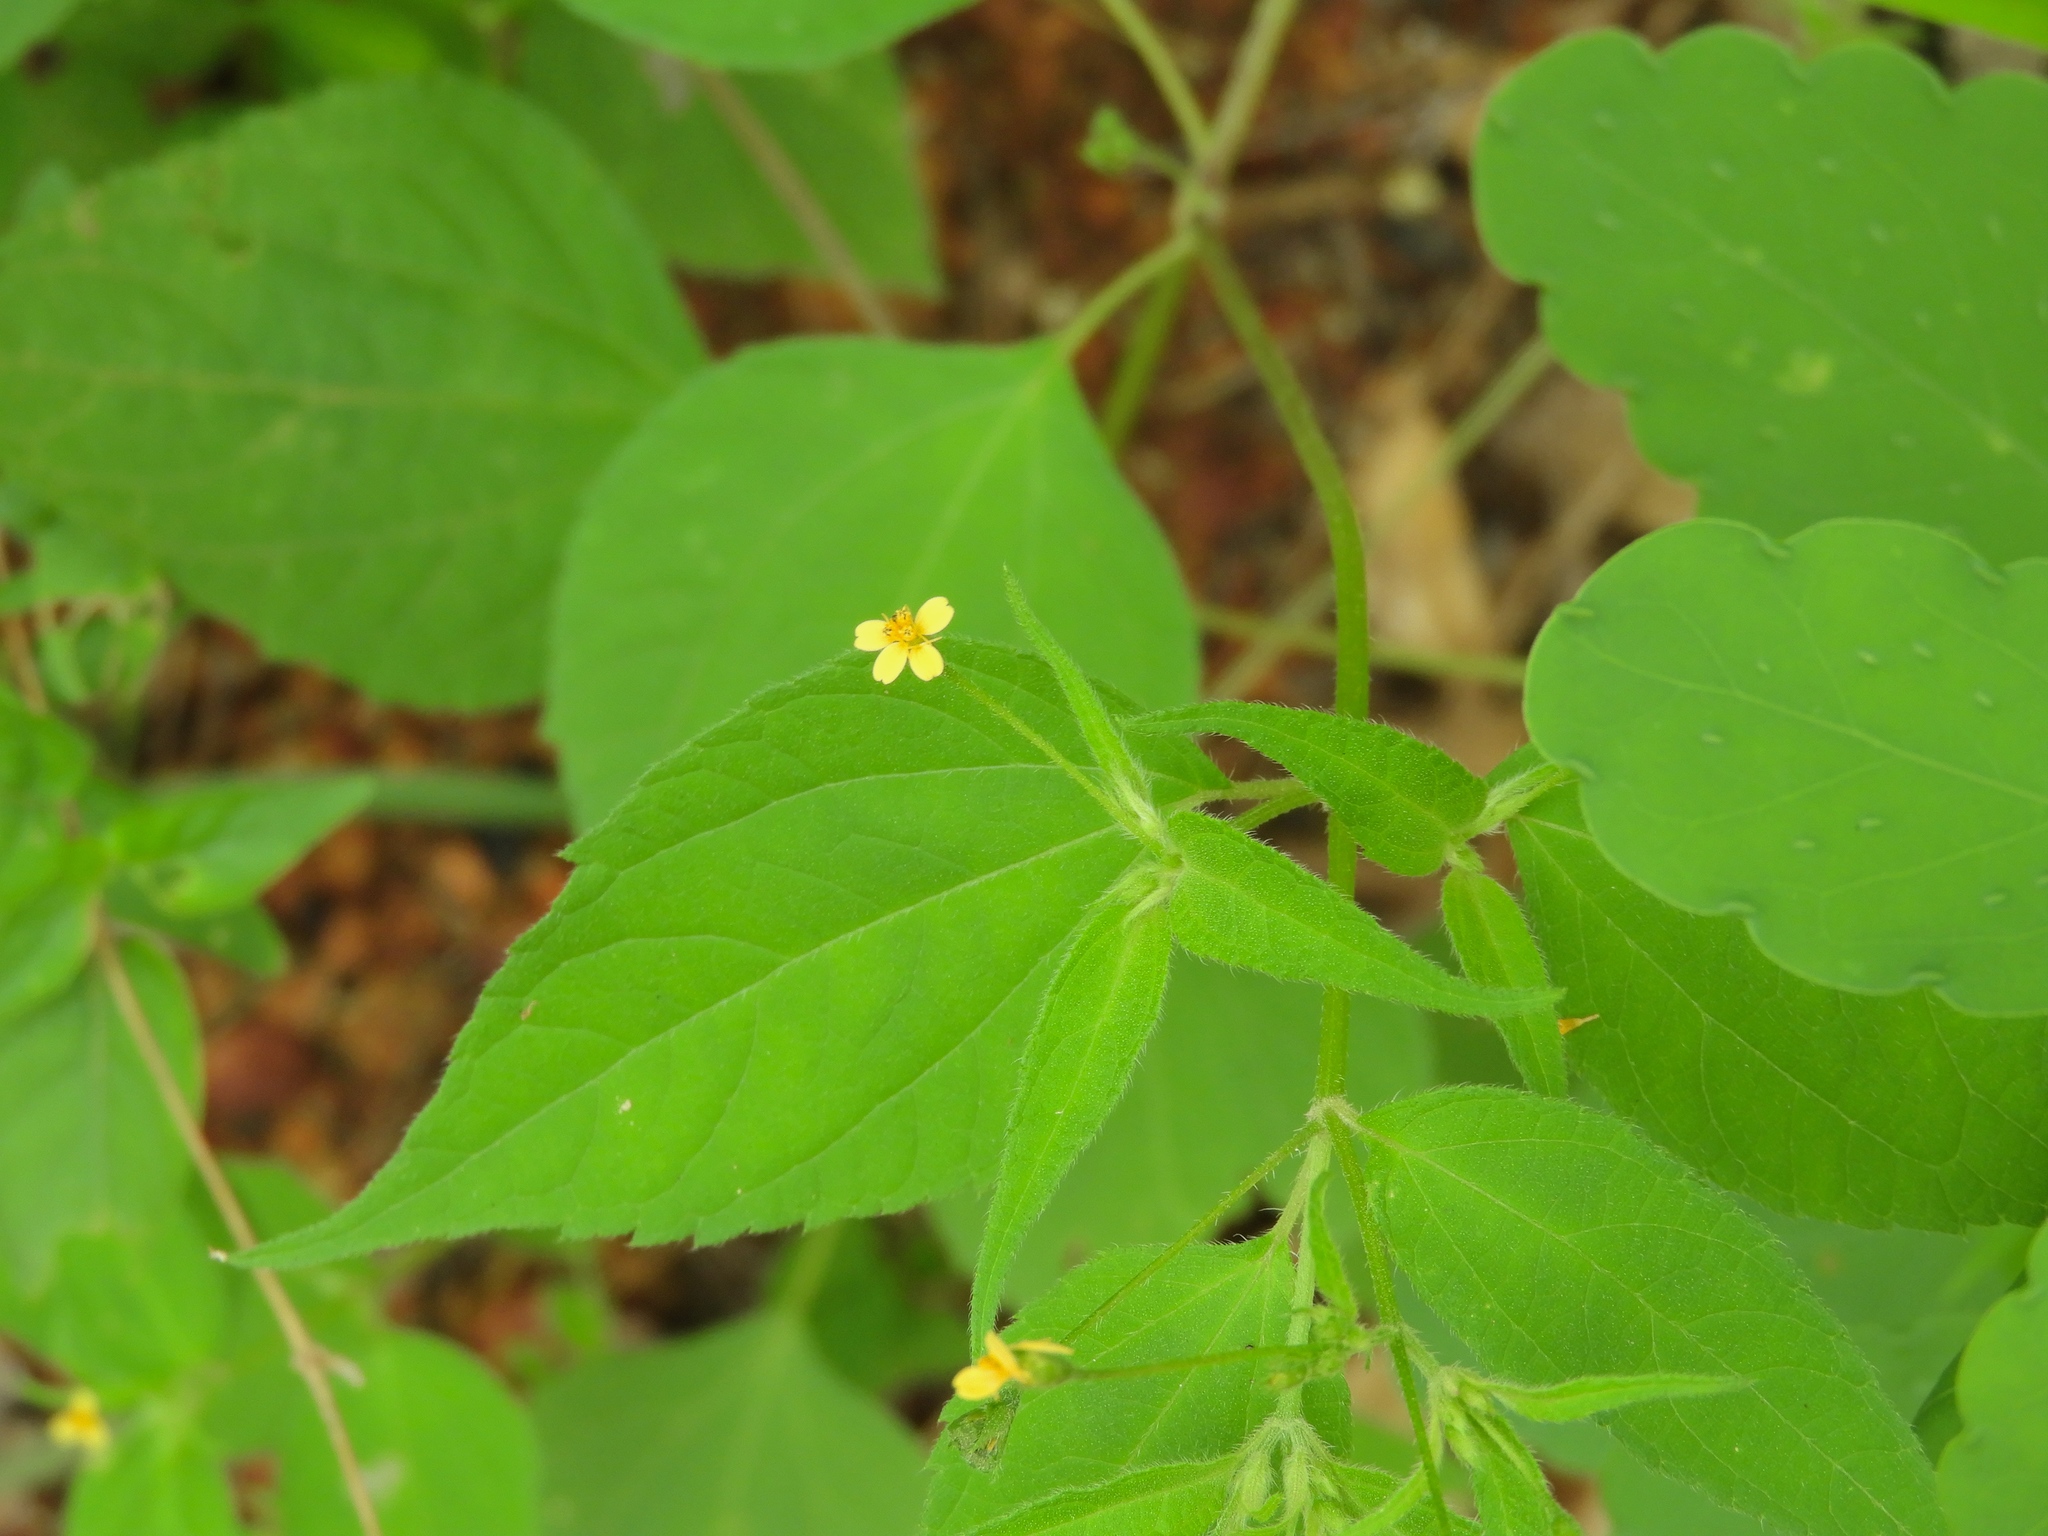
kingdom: Plantae
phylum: Tracheophyta
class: Magnoliopsida
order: Asterales
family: Asteraceae
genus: Baltimora
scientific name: Baltimora geminata
